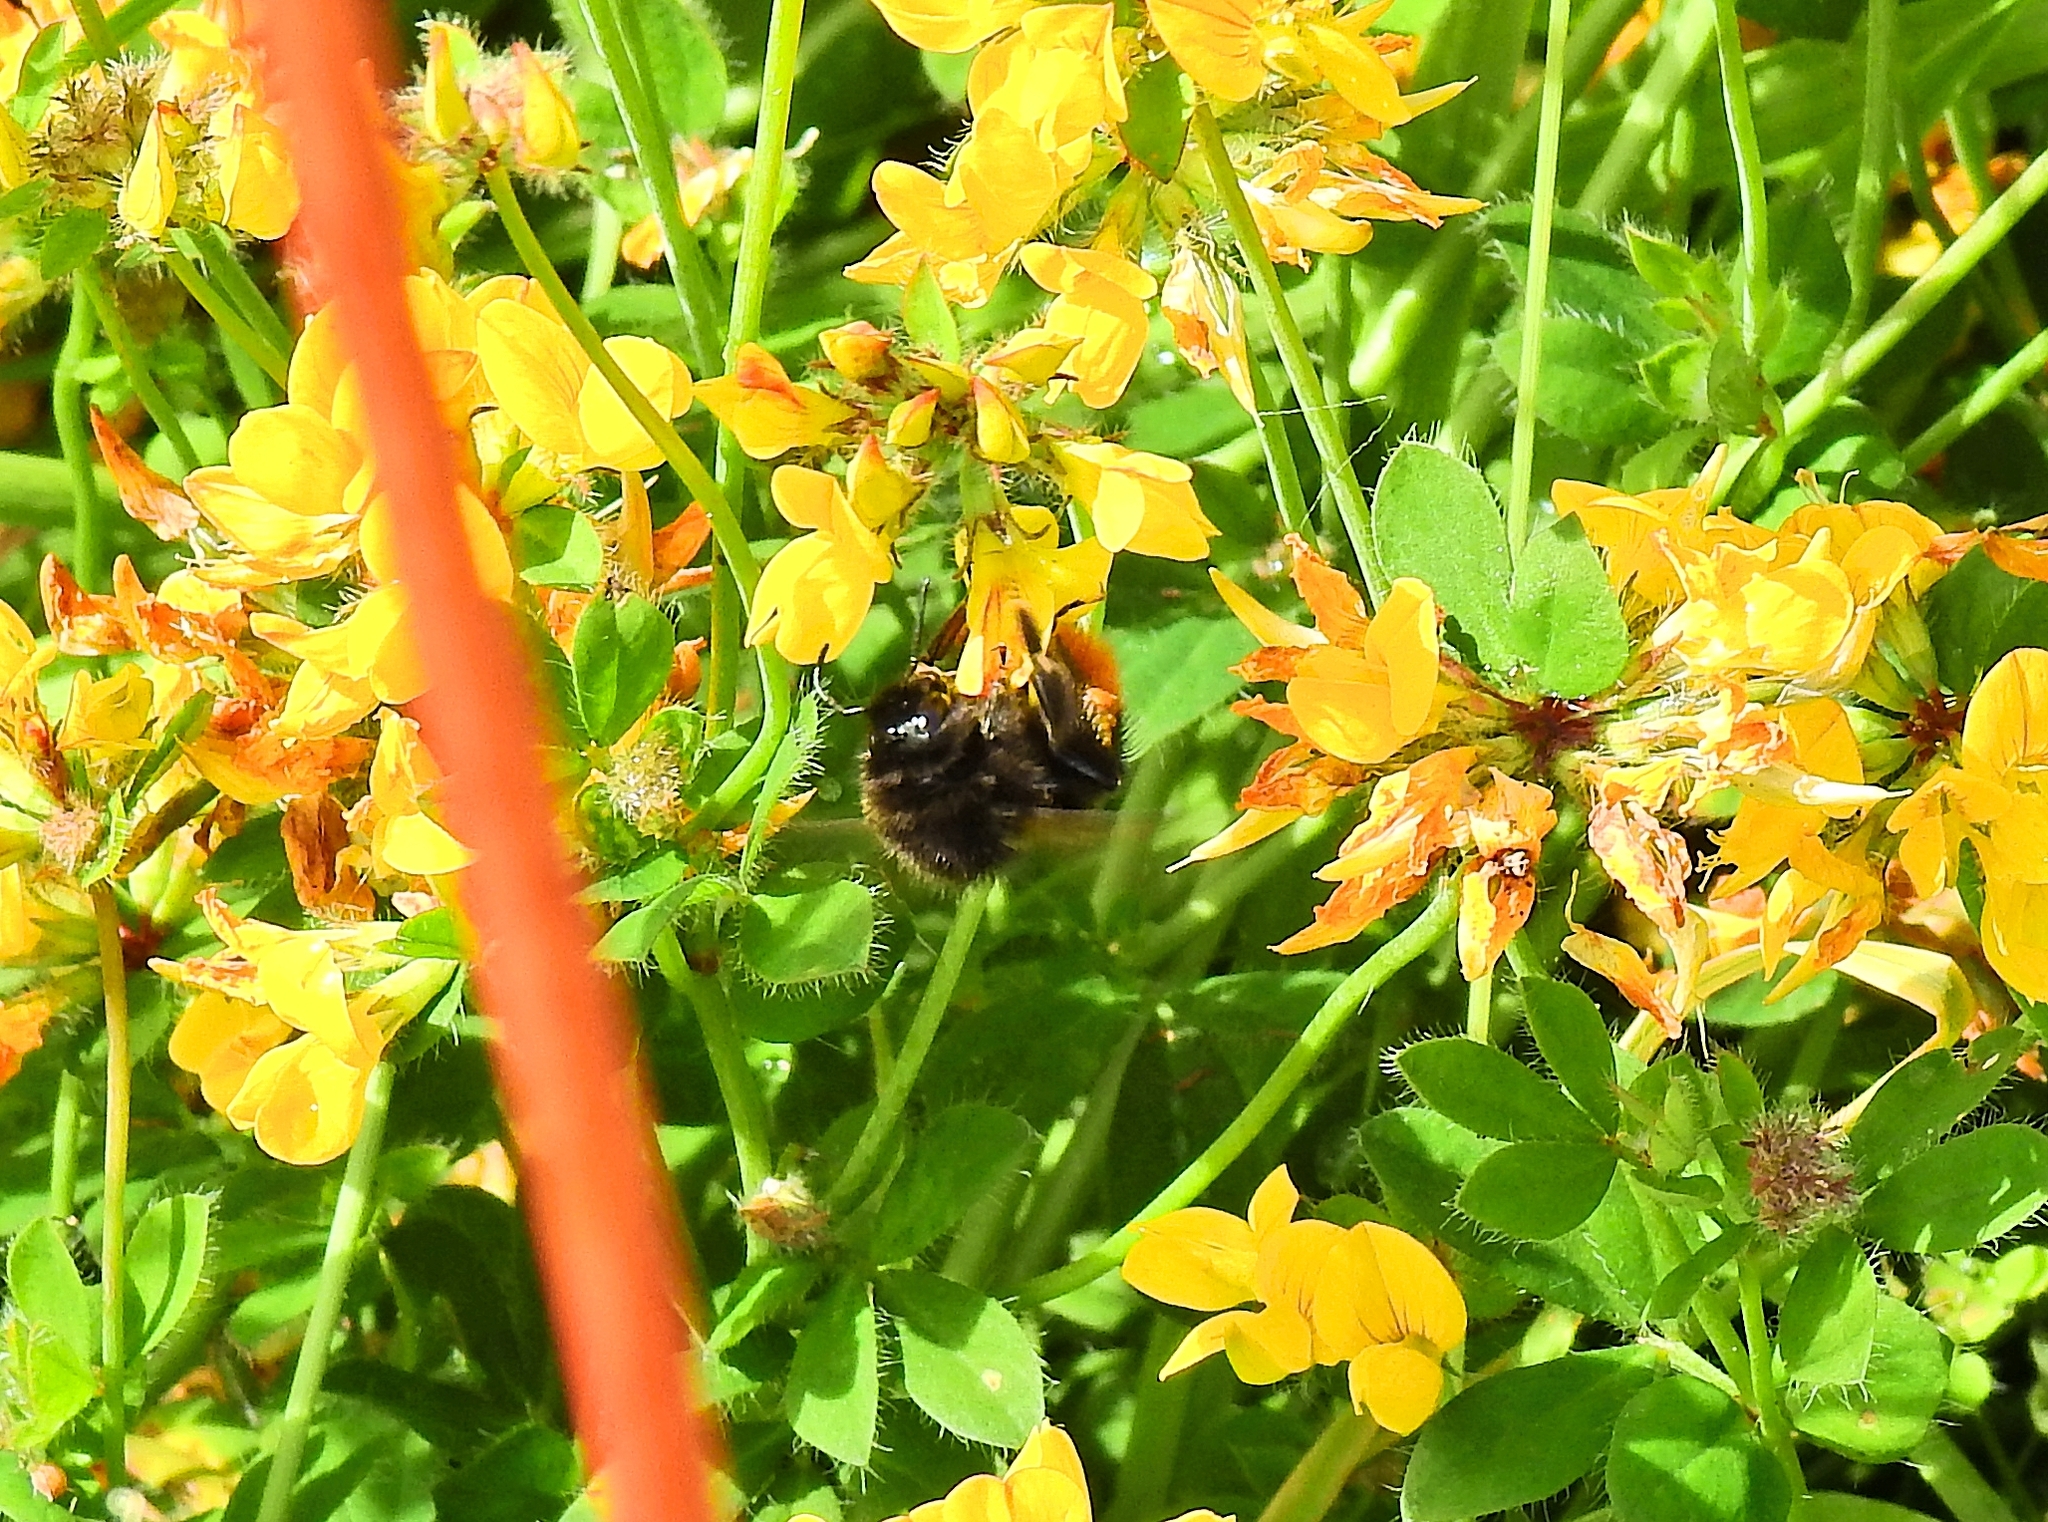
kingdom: Animalia
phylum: Arthropoda
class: Insecta
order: Hymenoptera
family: Apidae
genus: Bombus
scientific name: Bombus lapidarius
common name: Large red-tailed humble-bee
